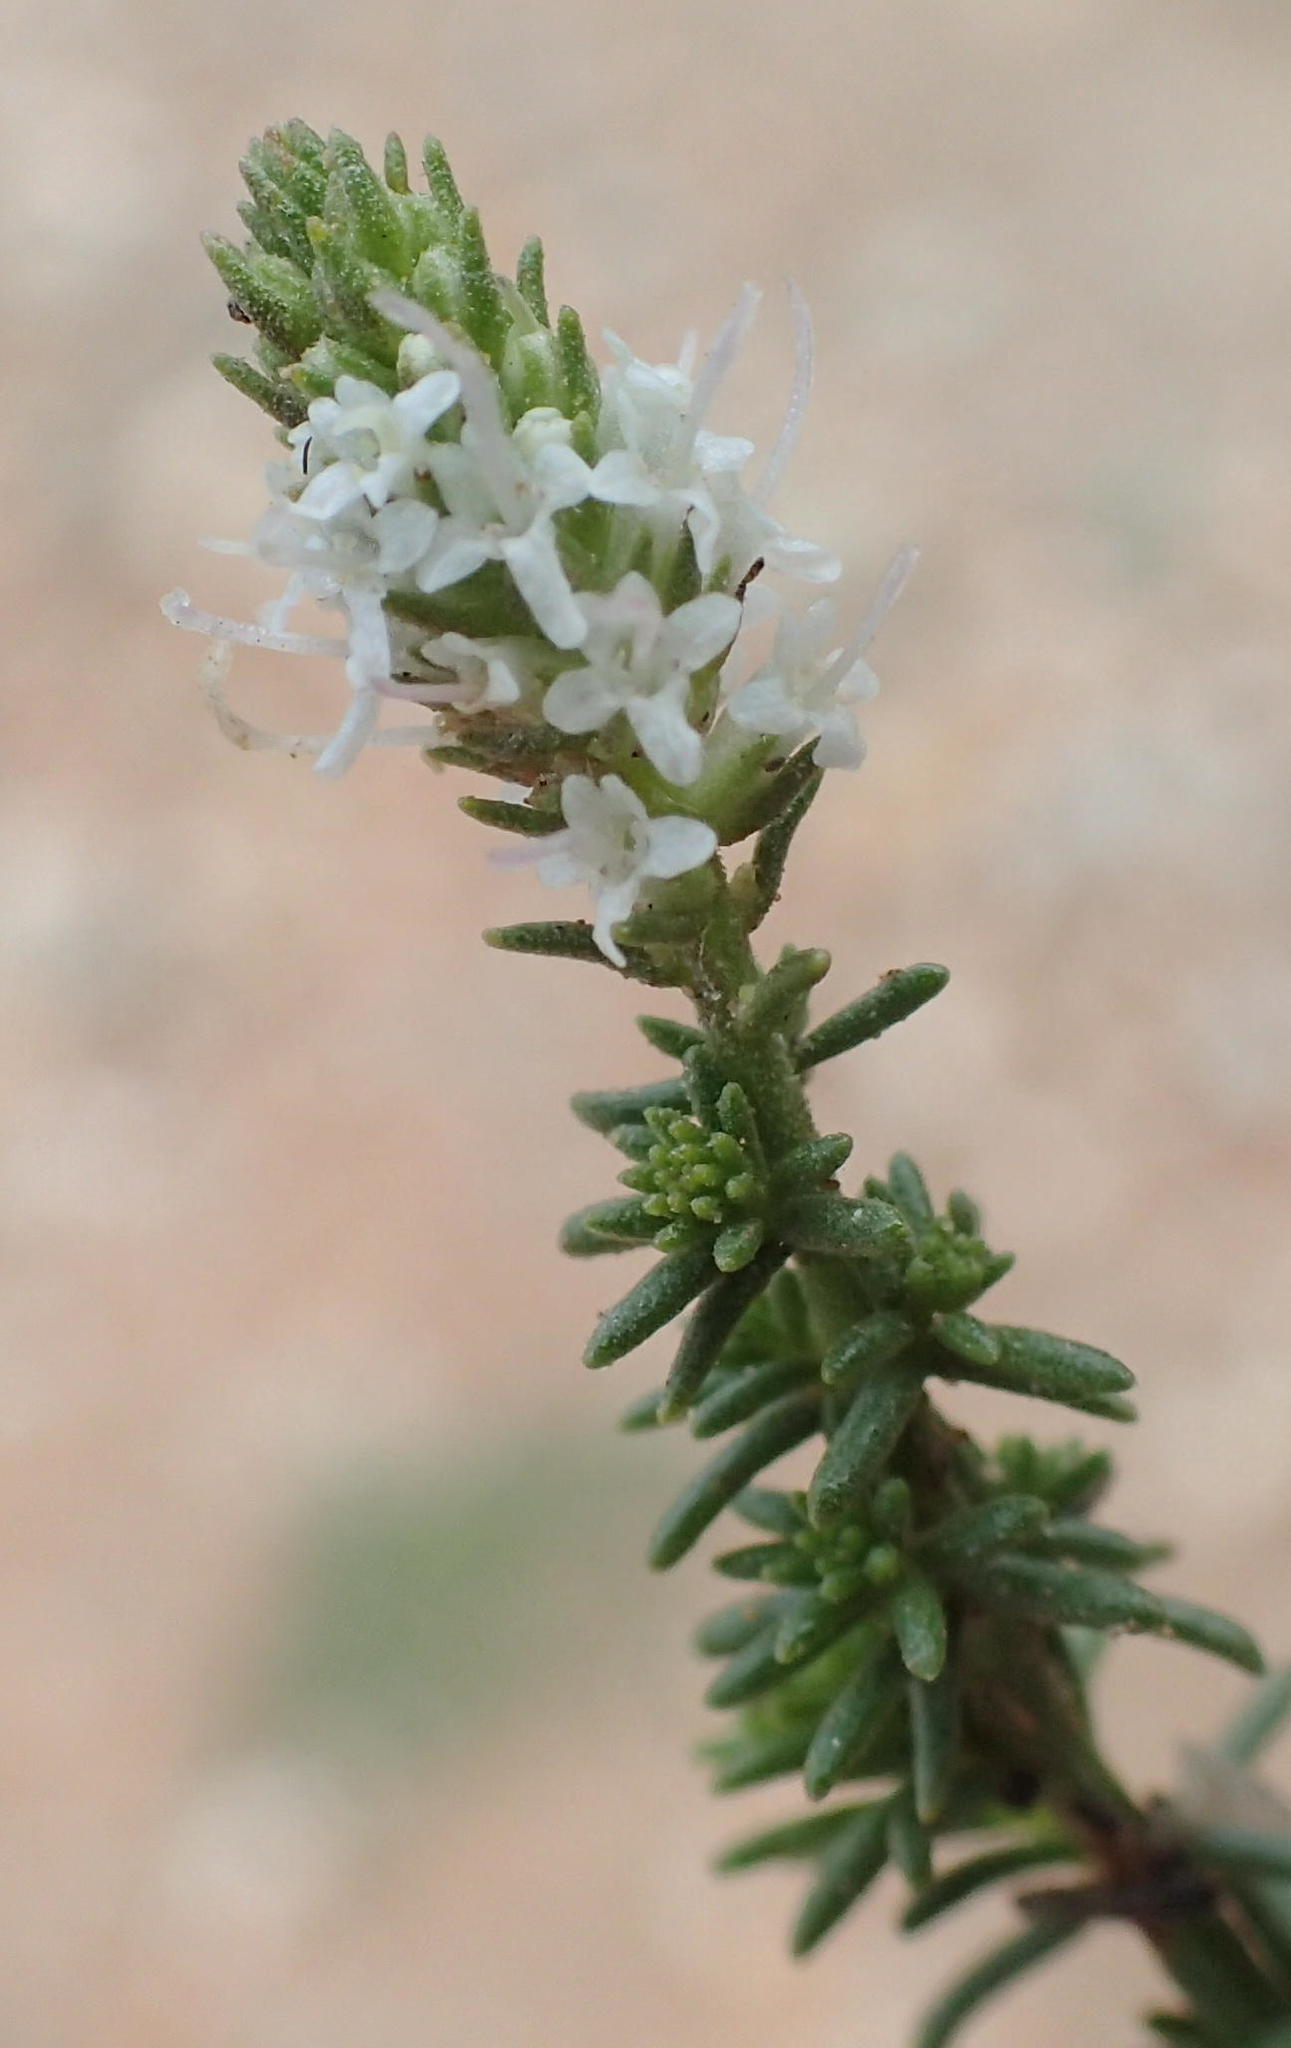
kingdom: Plantae
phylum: Tracheophyta
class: Magnoliopsida
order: Lamiales
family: Scrophulariaceae
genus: Selago
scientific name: Selago ferruginea
